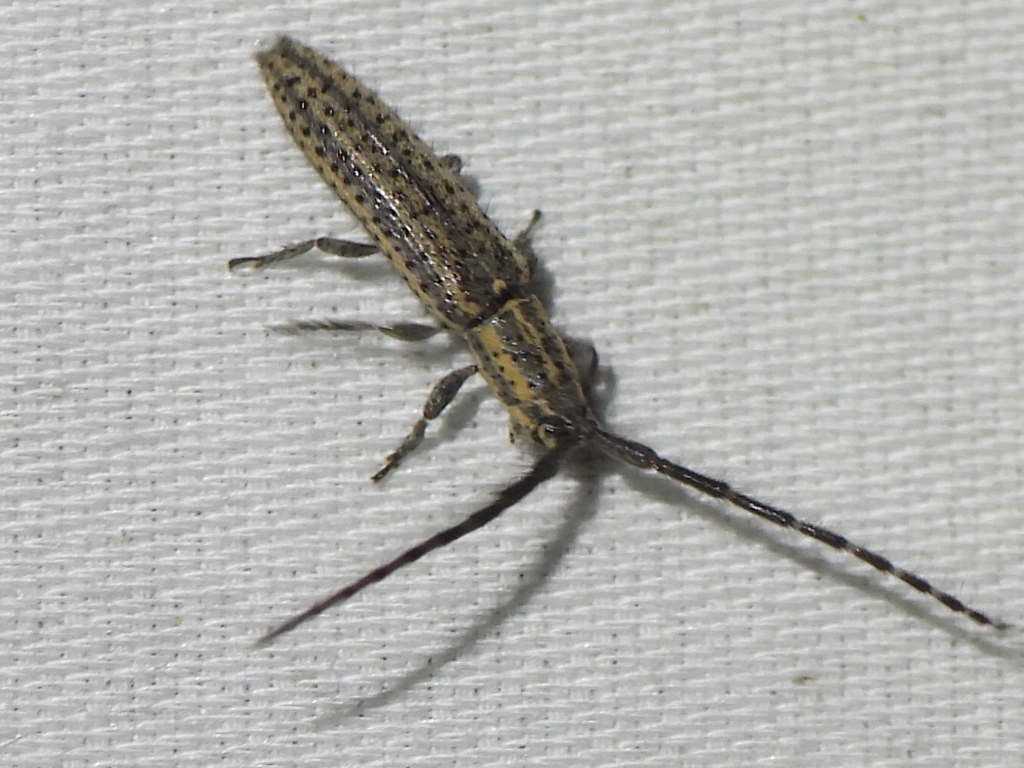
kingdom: Animalia
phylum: Arthropoda
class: Insecta
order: Coleoptera
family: Cerambycidae
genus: Dorcasta
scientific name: Dorcasta cinerea
